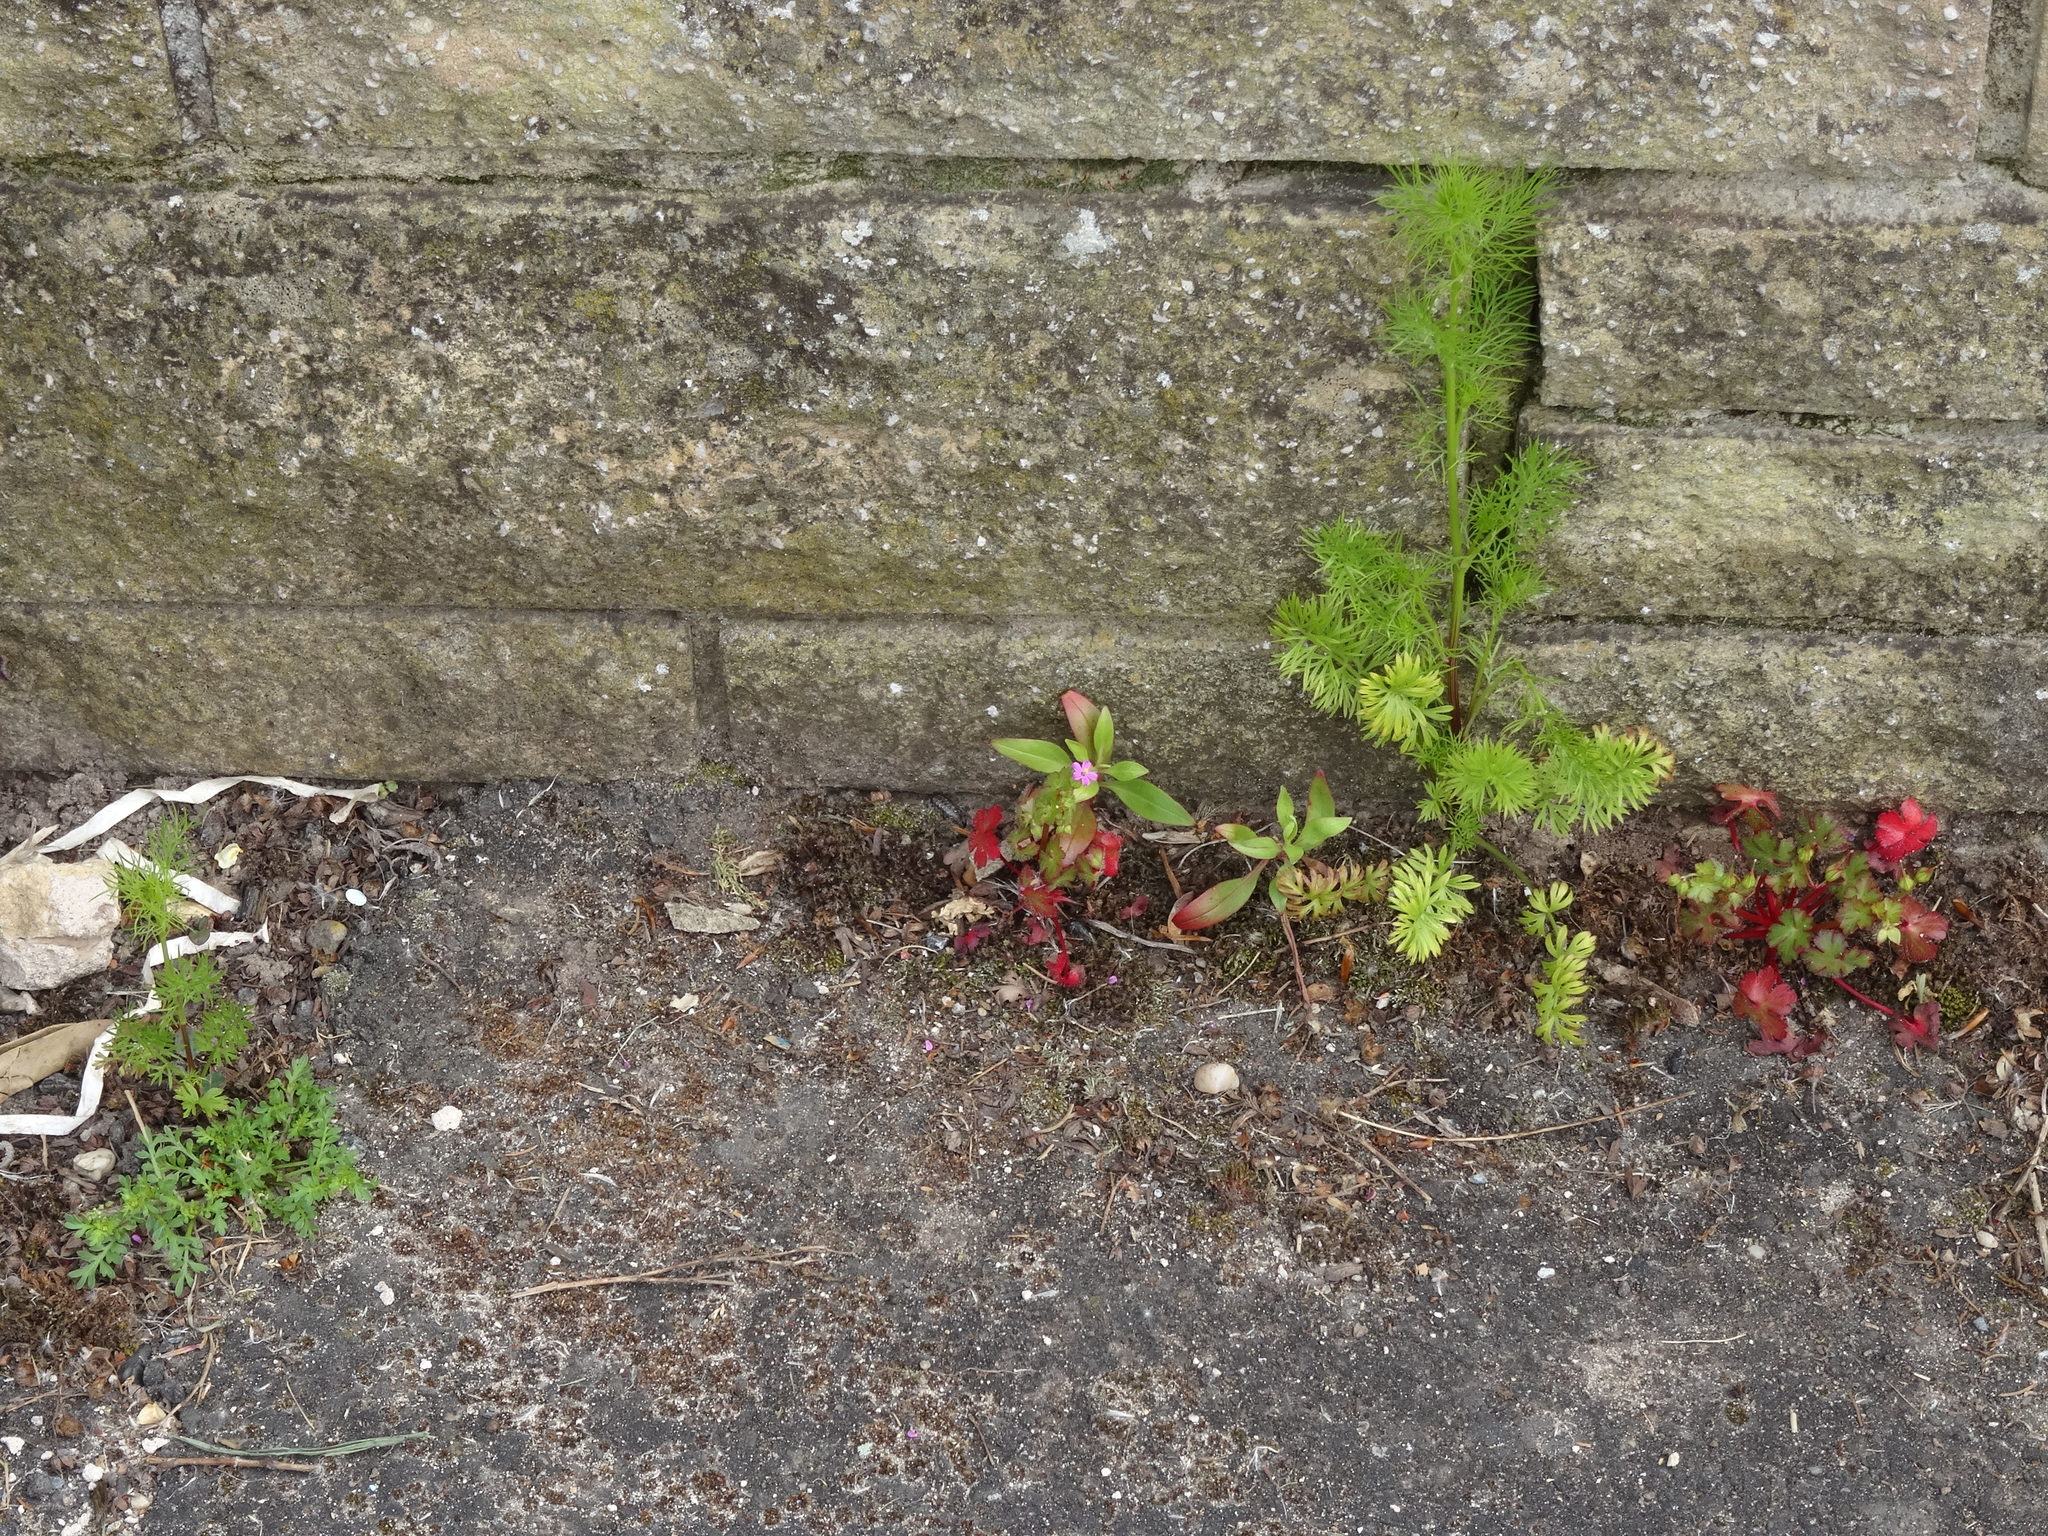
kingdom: Plantae
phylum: Tracheophyta
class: Magnoliopsida
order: Ranunculales
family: Ranunculaceae
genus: Nigella
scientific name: Nigella damascena
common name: Love-in-a-mist
